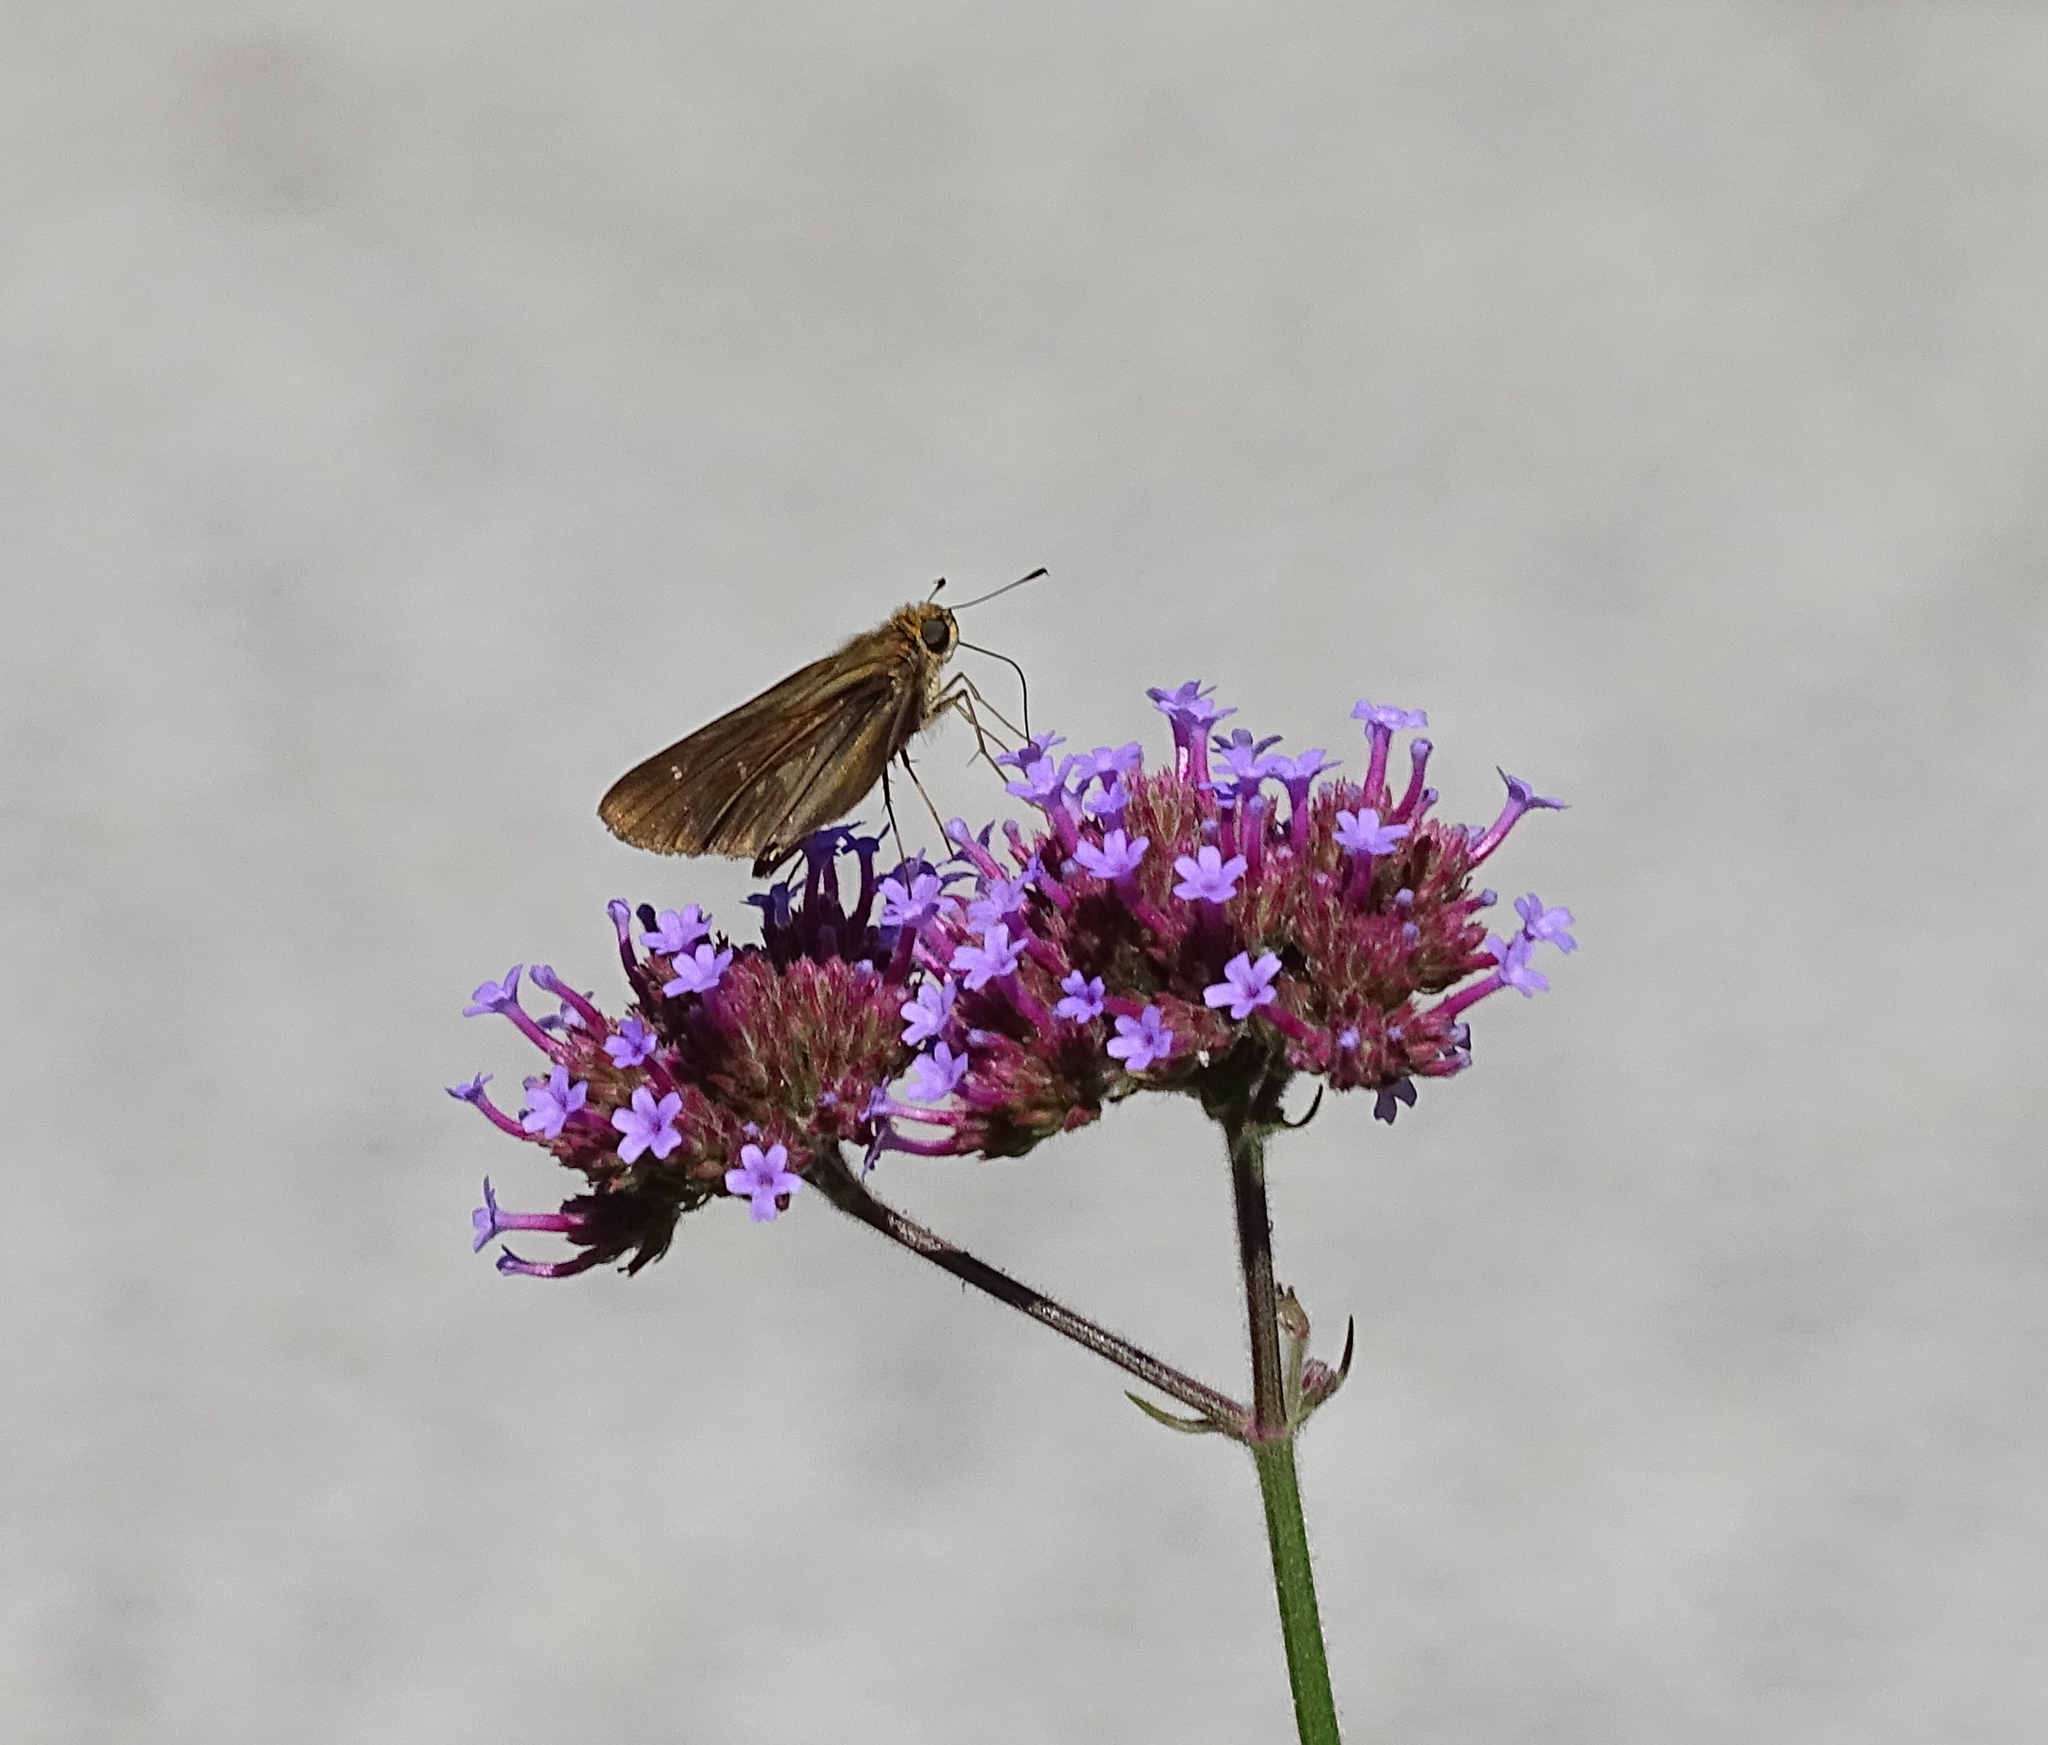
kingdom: Animalia
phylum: Arthropoda
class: Insecta
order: Lepidoptera
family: Hesperiidae
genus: Panoquina
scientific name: Panoquina ocola
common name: Ocola skipper
